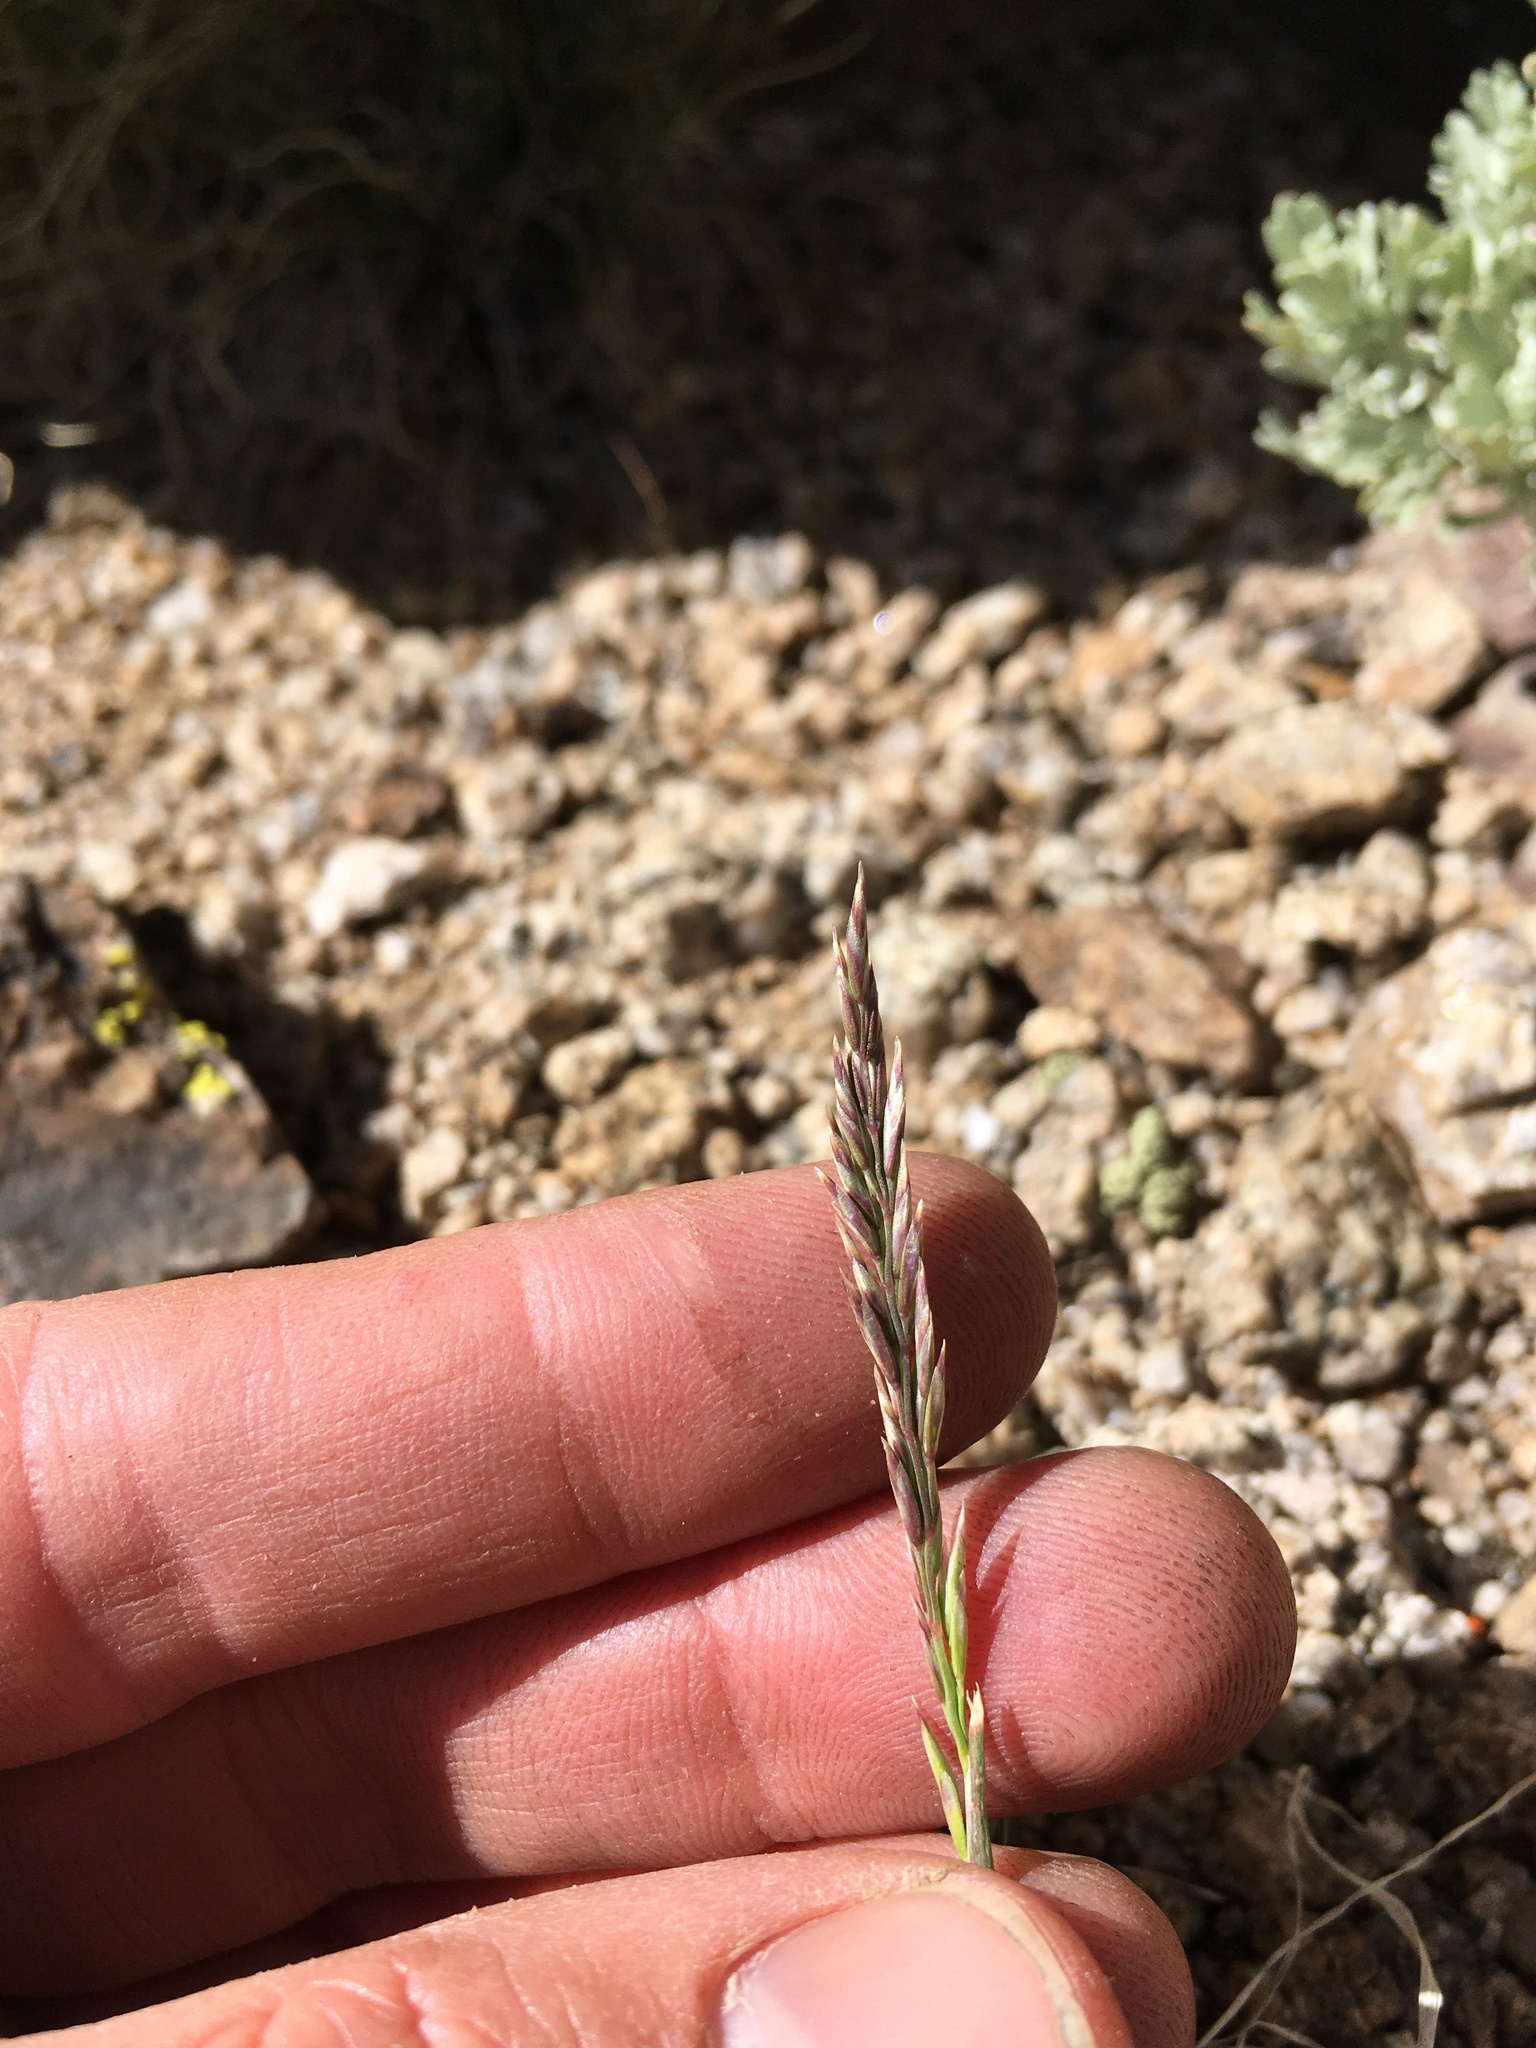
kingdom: Plantae
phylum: Tracheophyta
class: Liliopsida
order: Poales
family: Poaceae
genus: Poa
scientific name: Poa secunda
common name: Sandberg bluegrass
